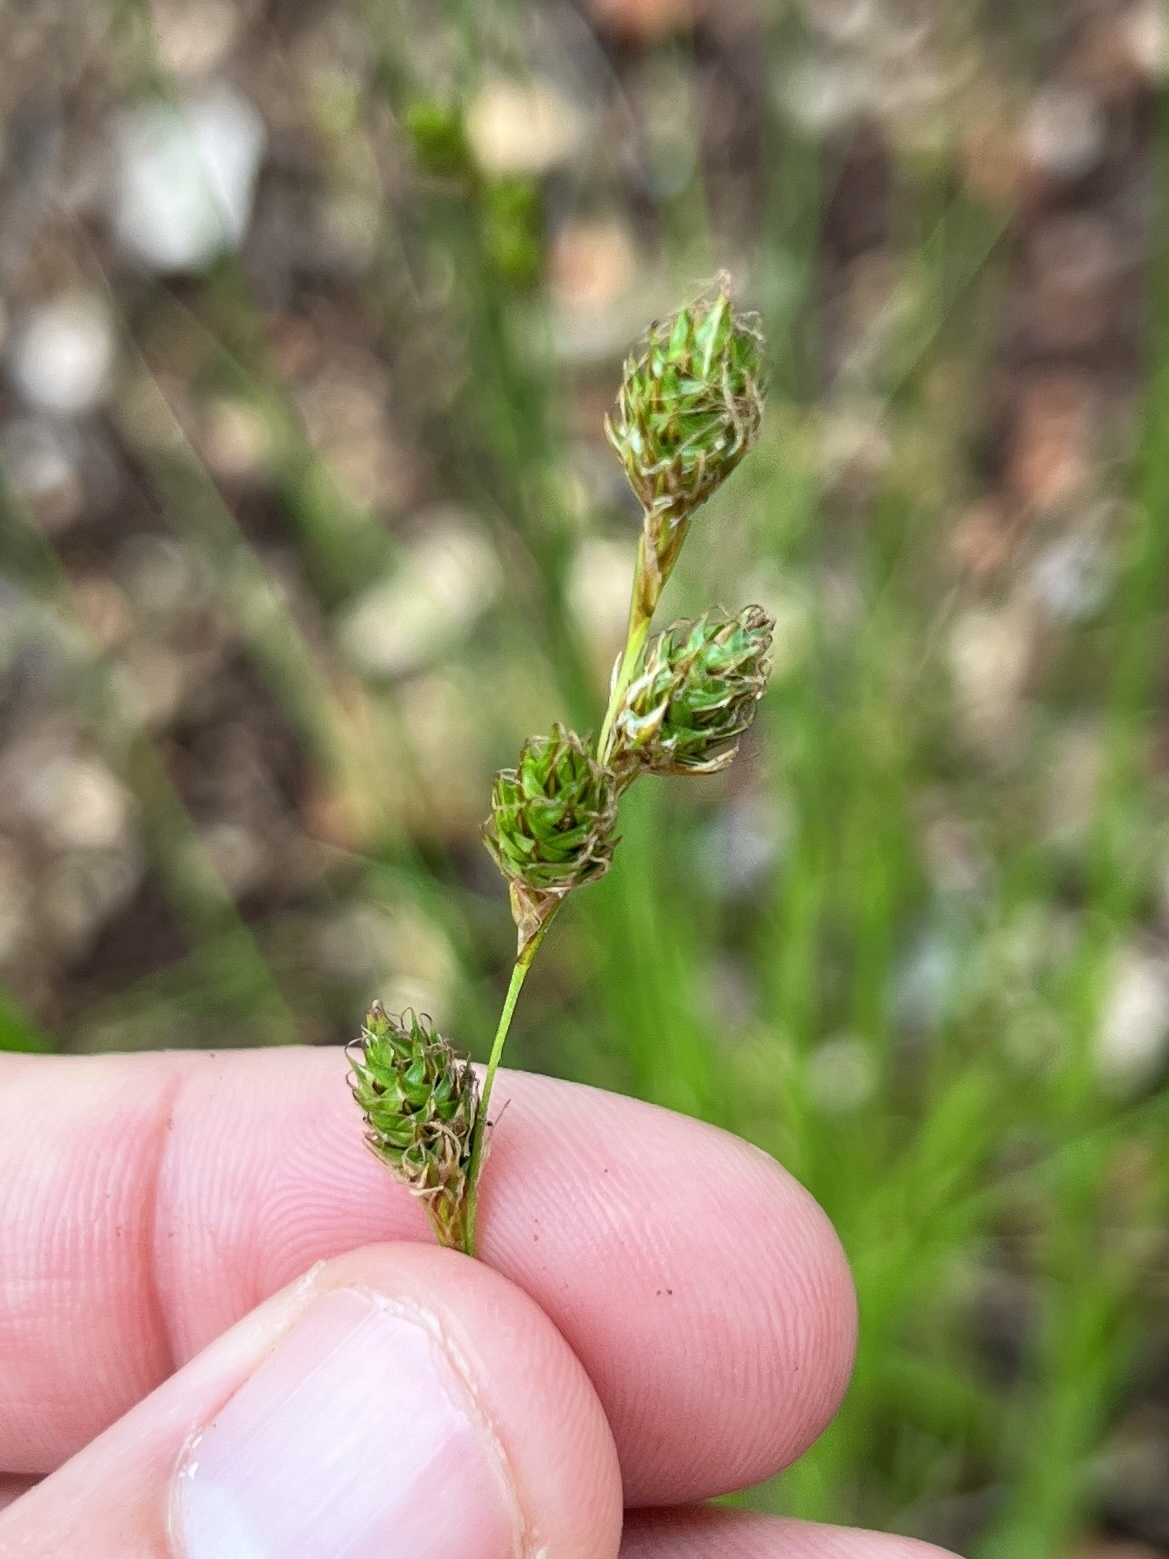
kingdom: Plantae
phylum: Tracheophyta
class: Liliopsida
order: Poales
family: Cyperaceae
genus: Carex
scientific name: Carex brevior
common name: Brevior sedge
